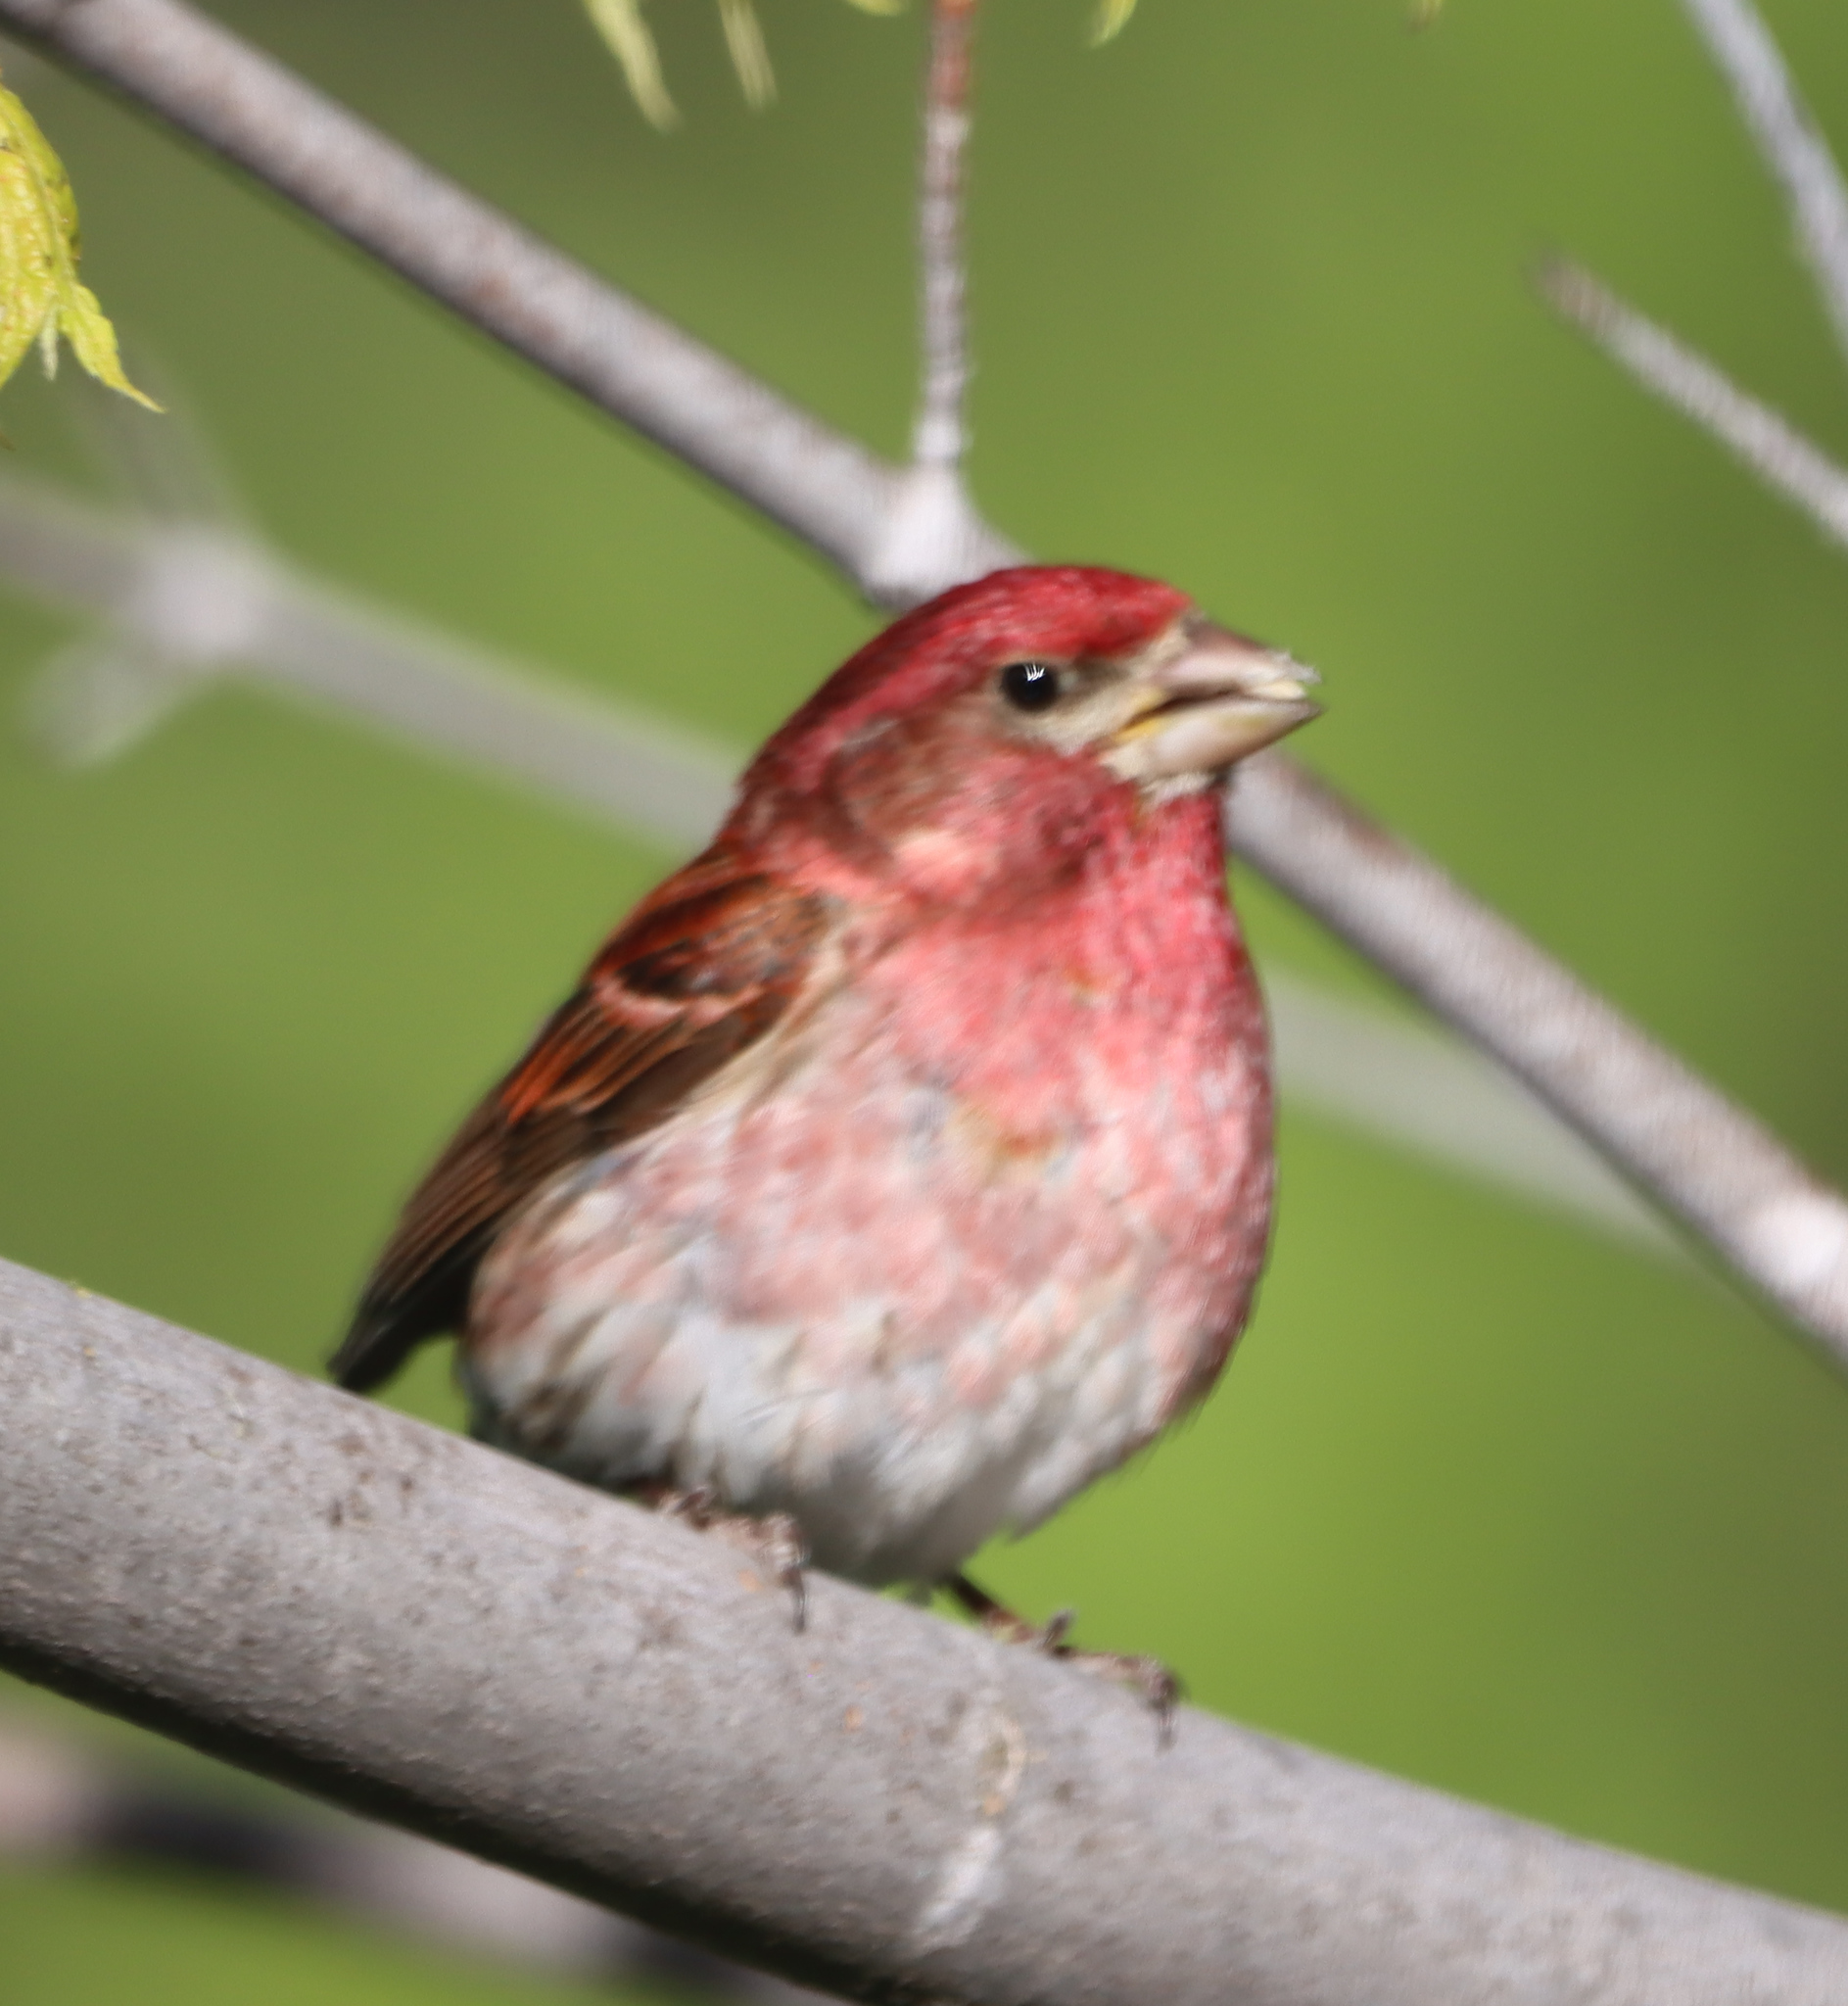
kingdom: Animalia
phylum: Chordata
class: Aves
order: Passeriformes
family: Fringillidae
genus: Haemorhous
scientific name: Haemorhous purpureus
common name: Purple finch
